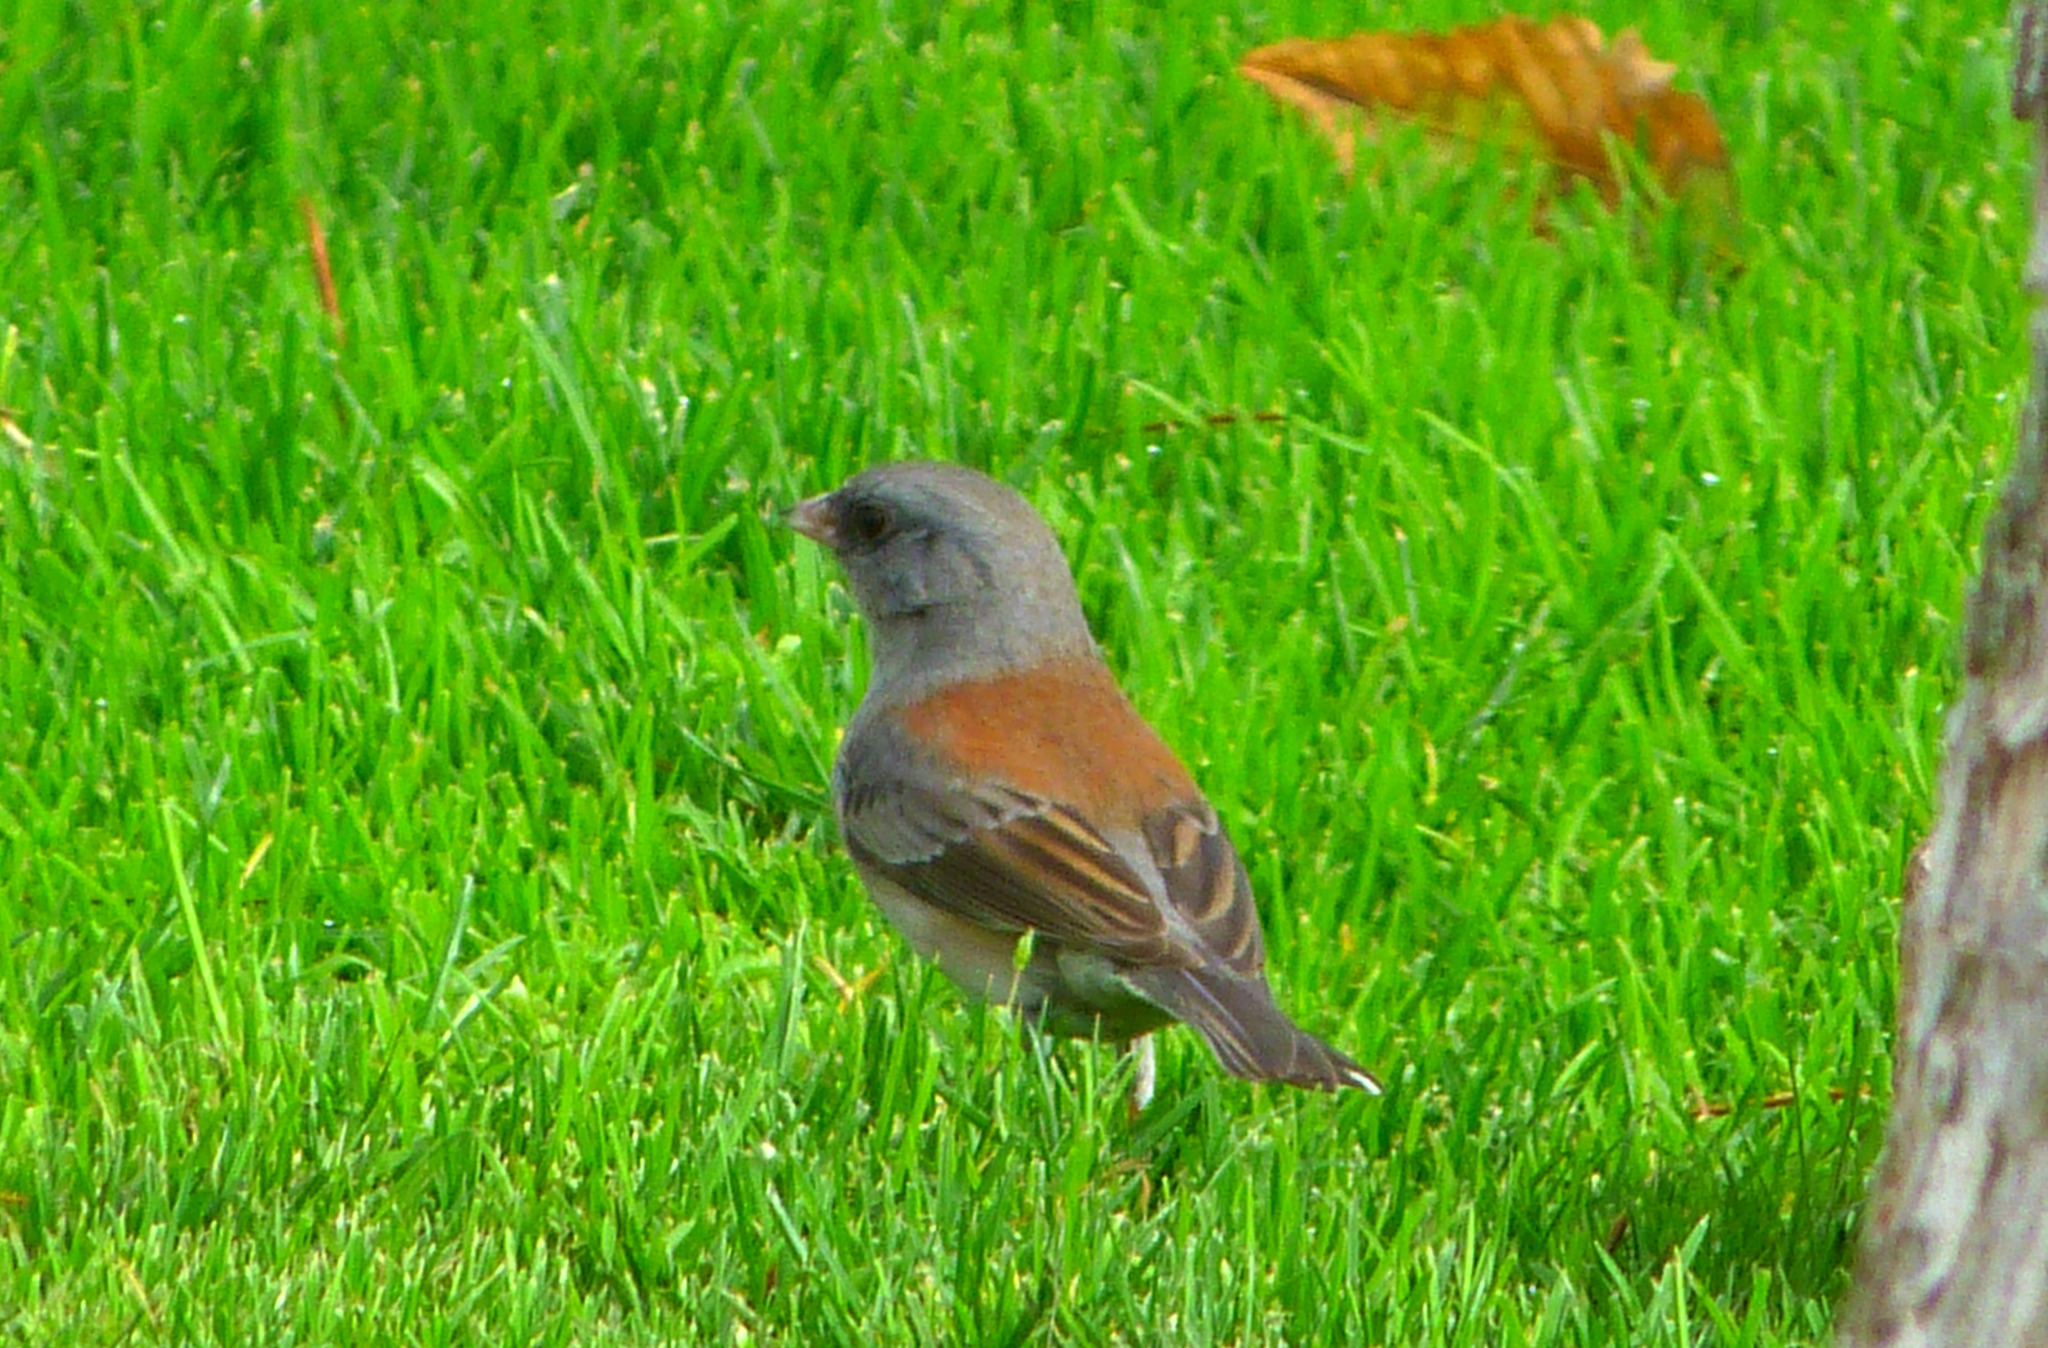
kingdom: Animalia
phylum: Chordata
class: Aves
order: Passeriformes
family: Passerellidae
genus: Junco
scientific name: Junco hyemalis
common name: Dark-eyed junco
